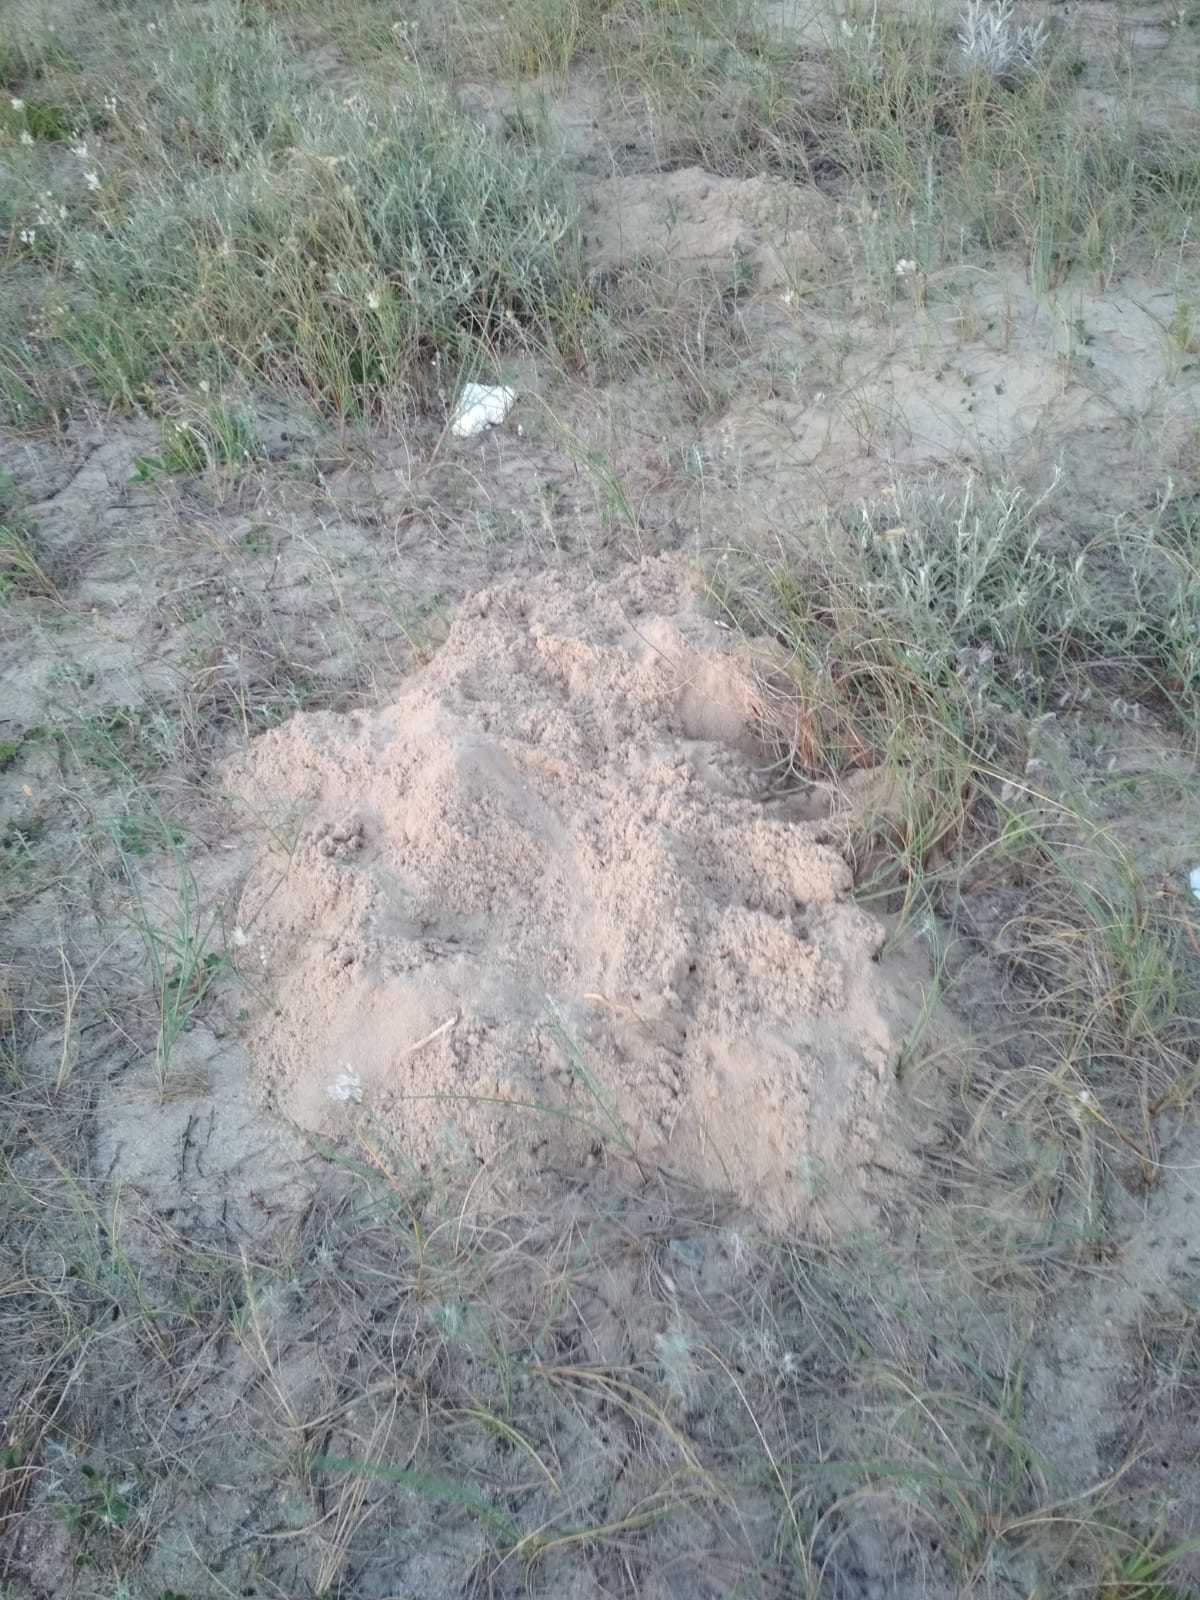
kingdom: Animalia
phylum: Chordata
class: Mammalia
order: Rodentia
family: Ctenomyidae
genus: Ctenomys
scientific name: Ctenomys pearsoni
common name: Pearson's tuco-tuco
